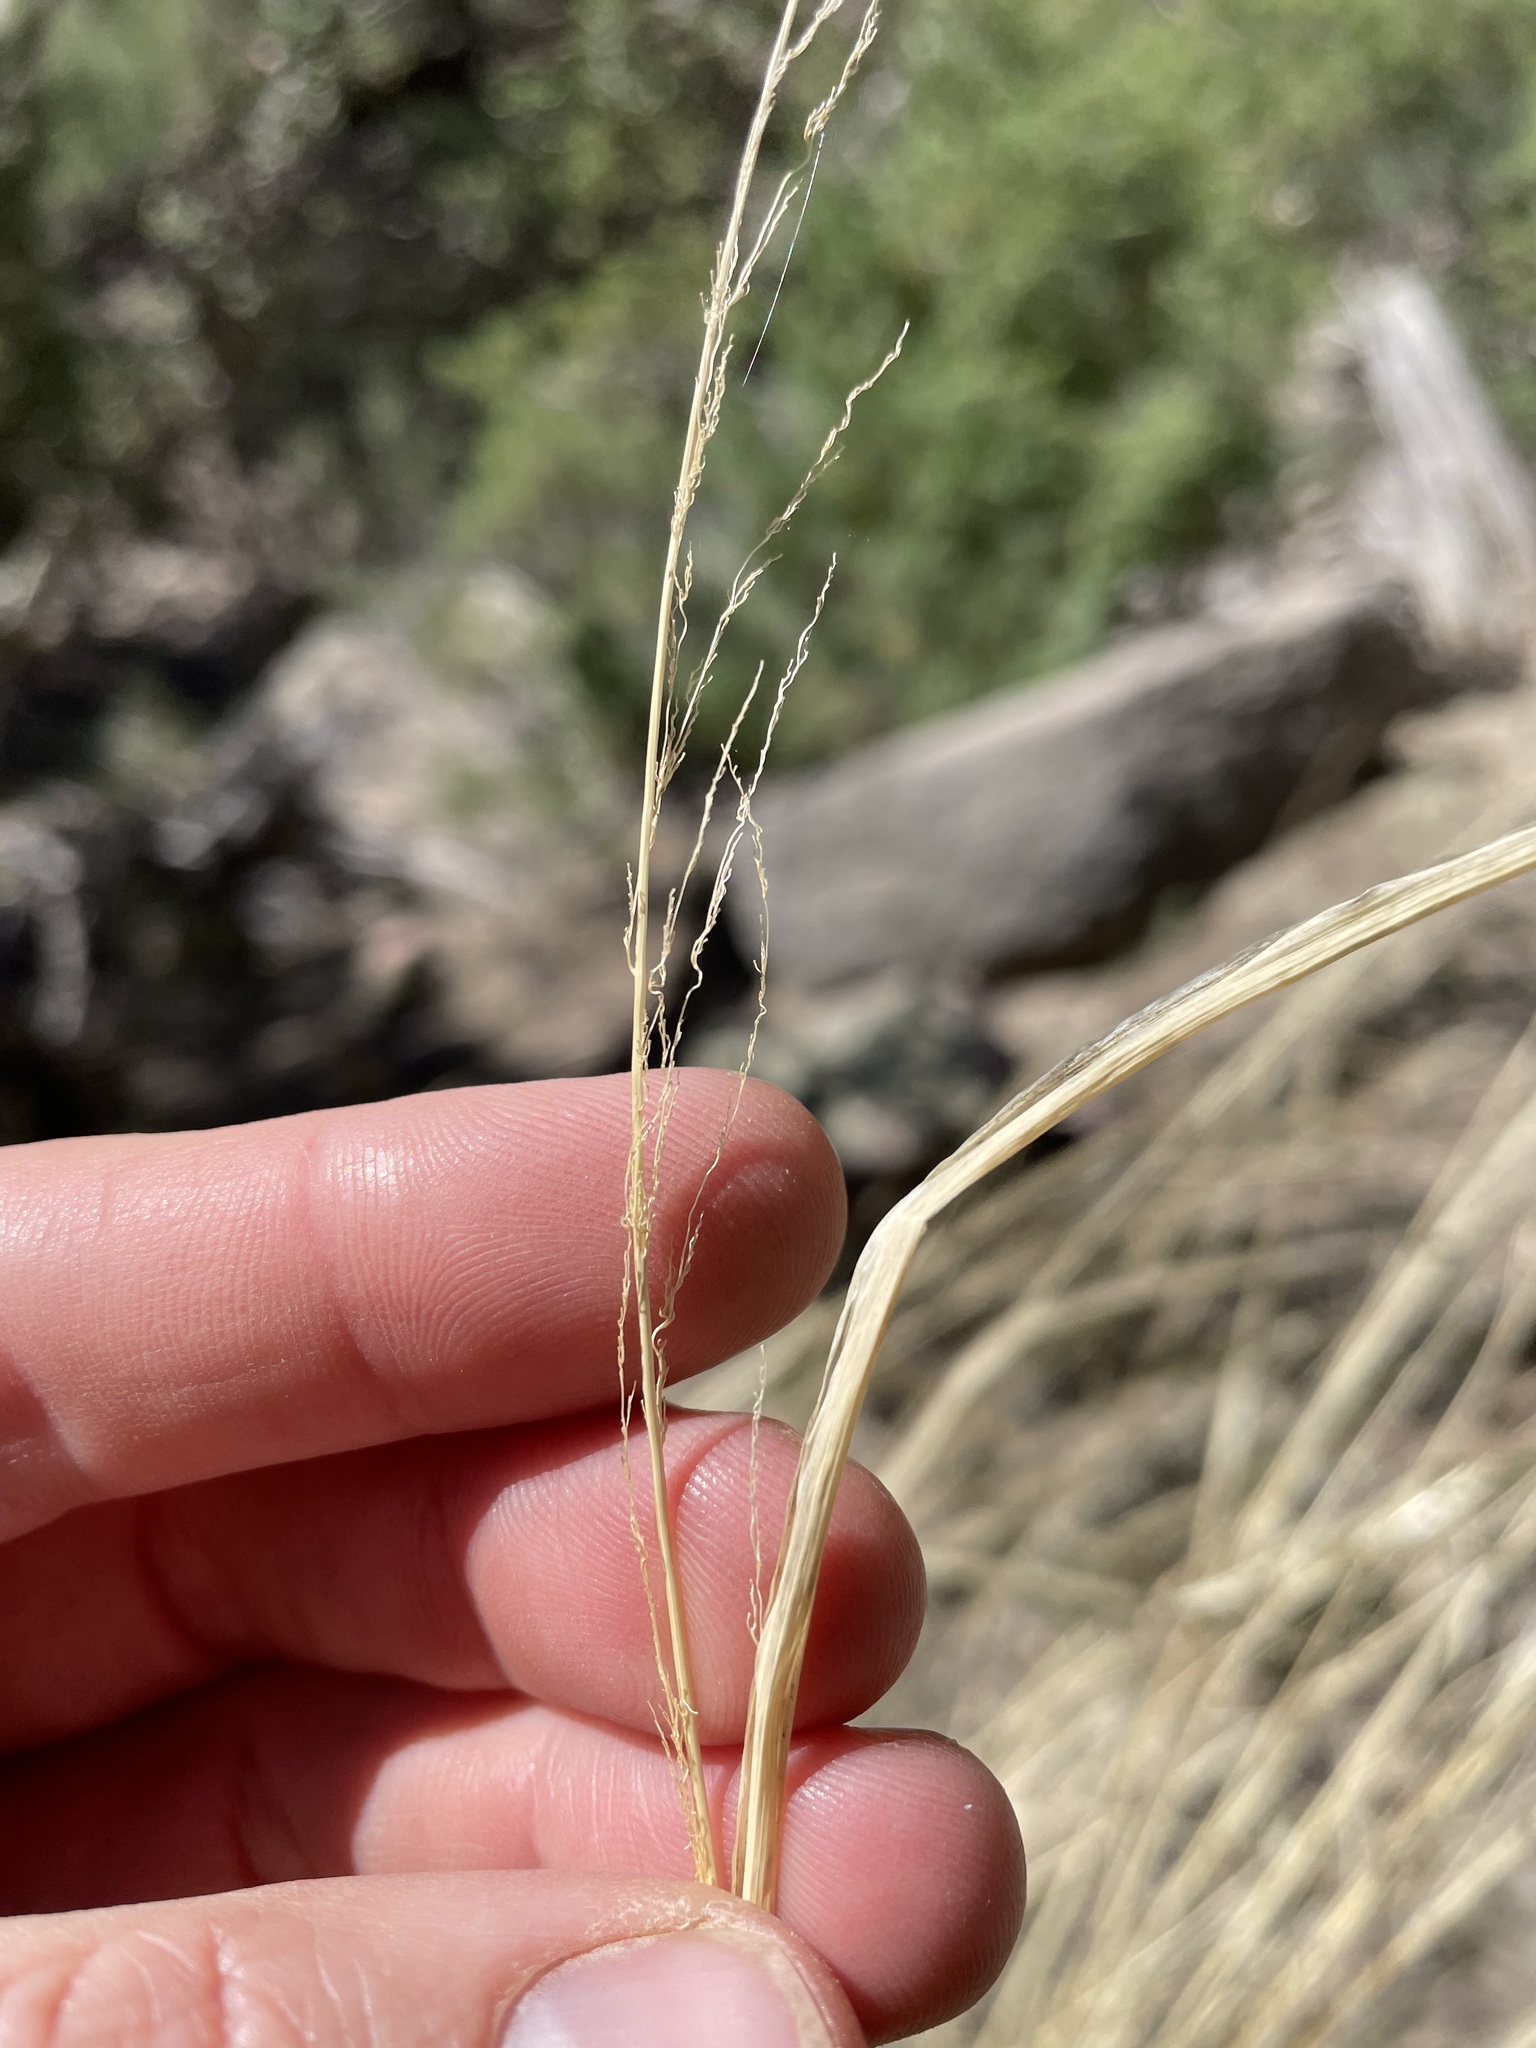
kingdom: Plantae
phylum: Tracheophyta
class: Liliopsida
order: Poales
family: Poaceae
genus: Sporobolus
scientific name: Sporobolus cryptandrus
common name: Sand dropseed
